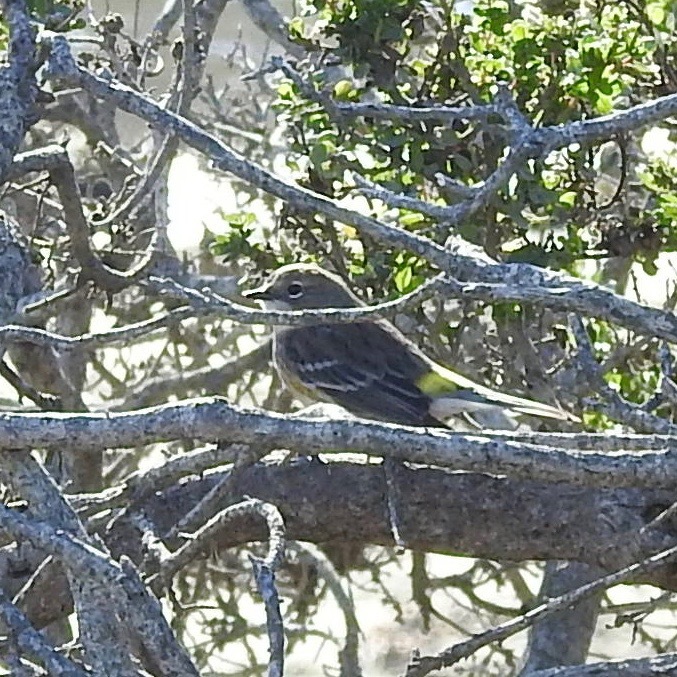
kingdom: Animalia
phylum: Chordata
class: Aves
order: Passeriformes
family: Parulidae
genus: Setophaga
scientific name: Setophaga coronata
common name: Myrtle warbler
